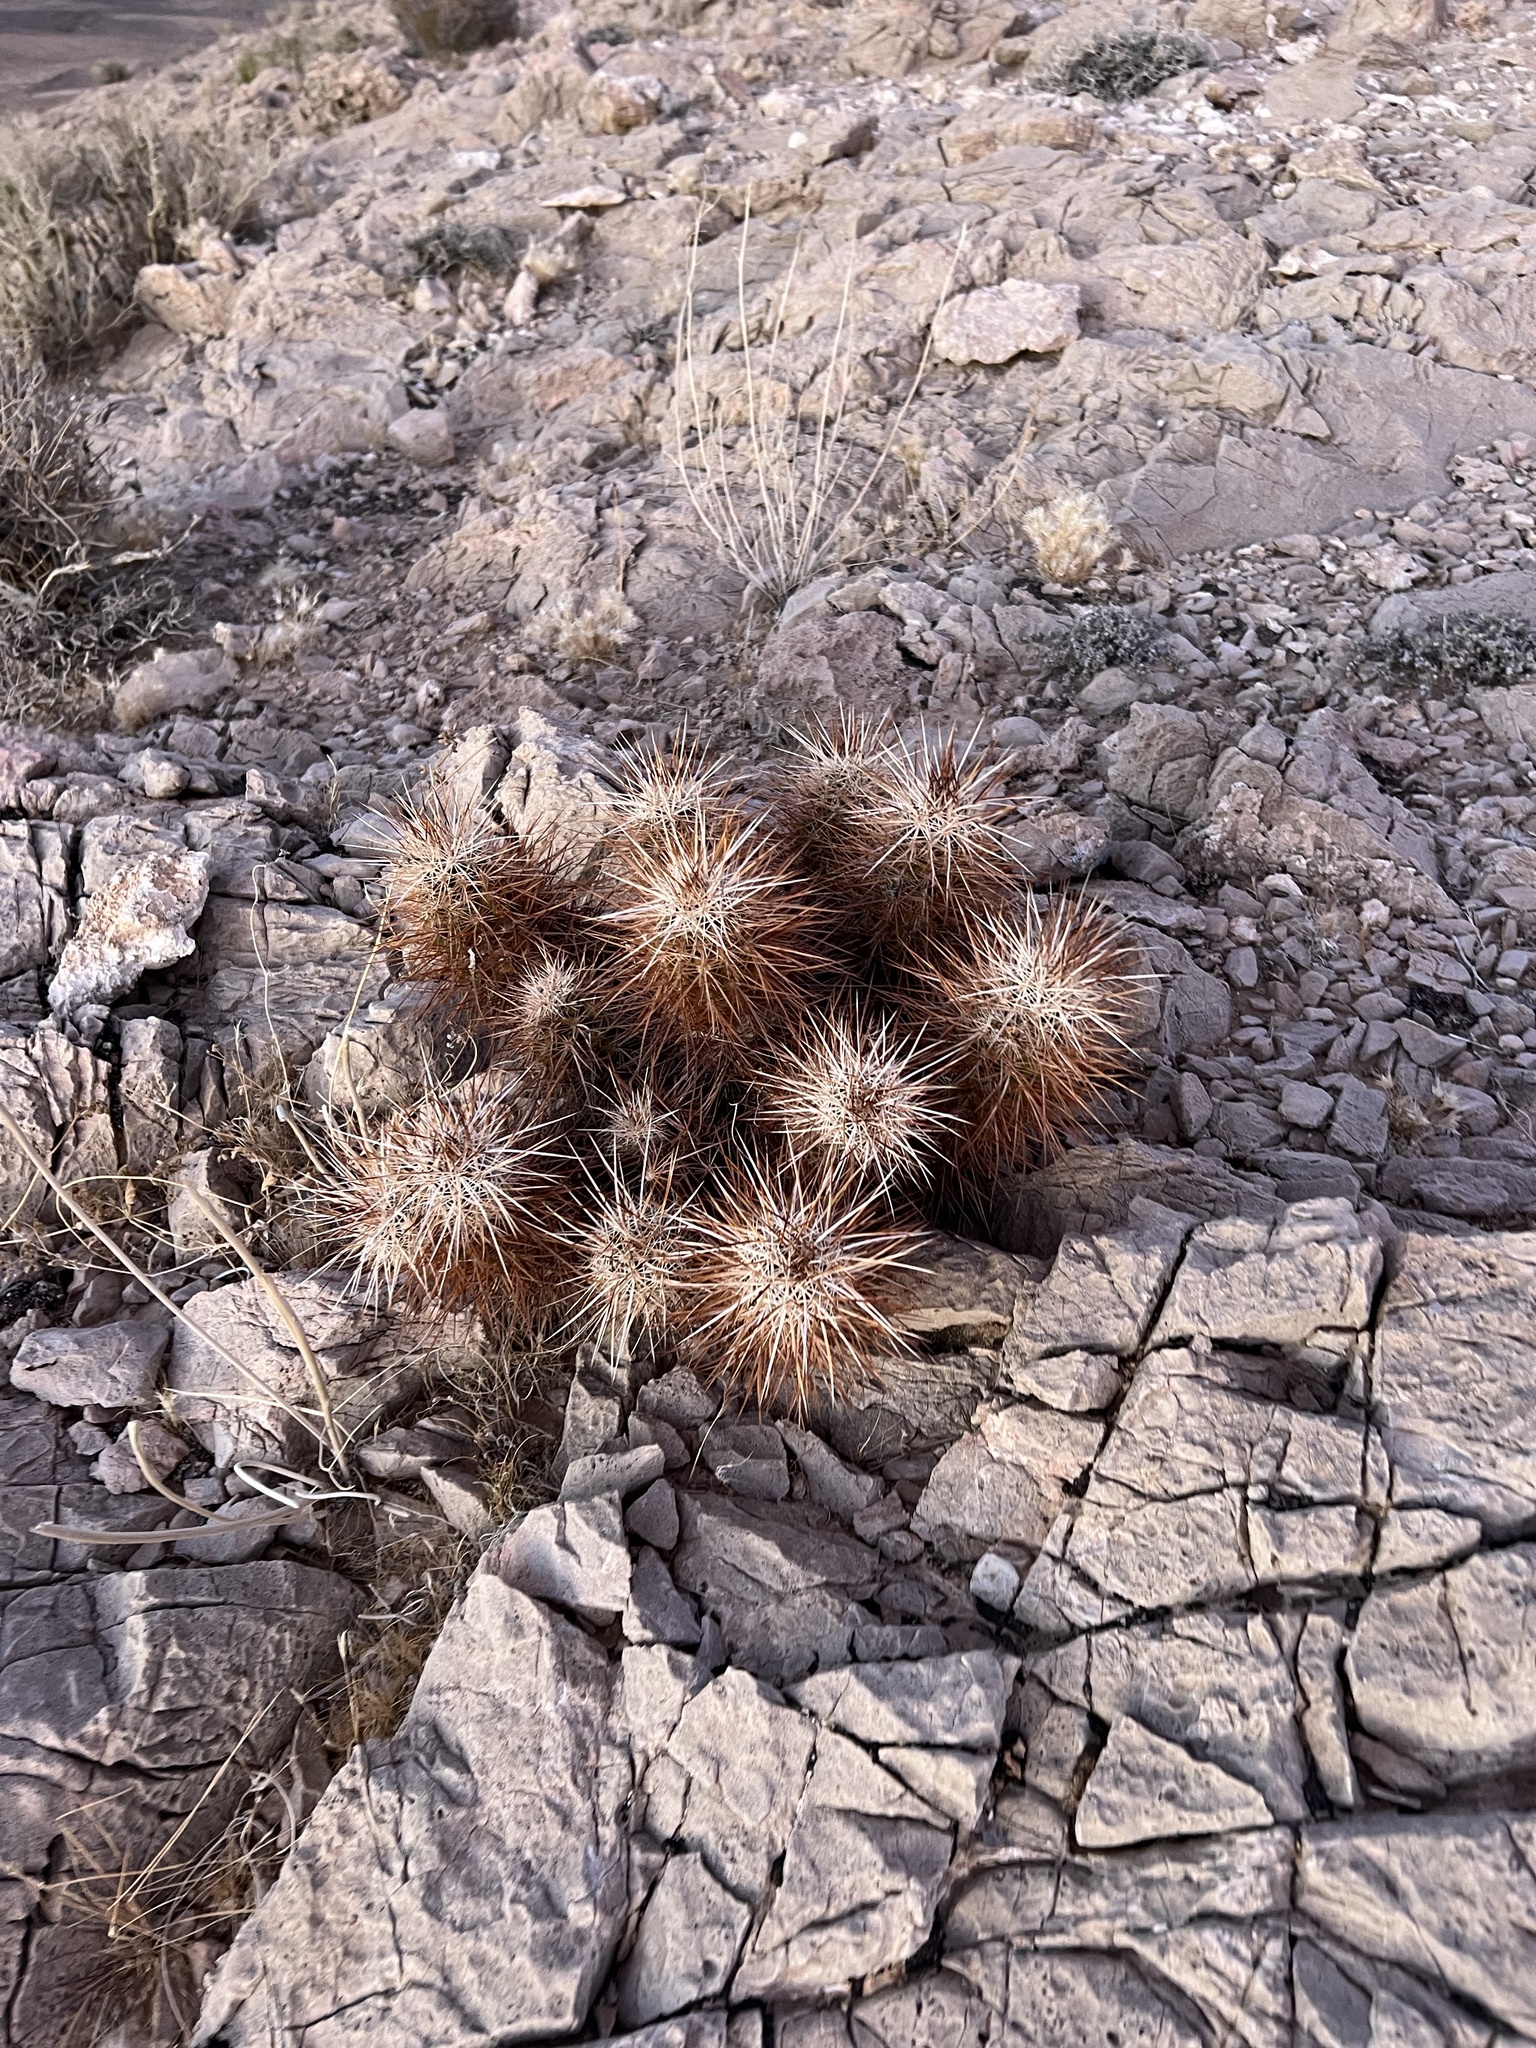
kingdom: Plantae
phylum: Tracheophyta
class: Magnoliopsida
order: Caryophyllales
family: Cactaceae
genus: Echinocereus
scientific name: Echinocereus engelmannii
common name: Engelmann's hedgehog cactus
